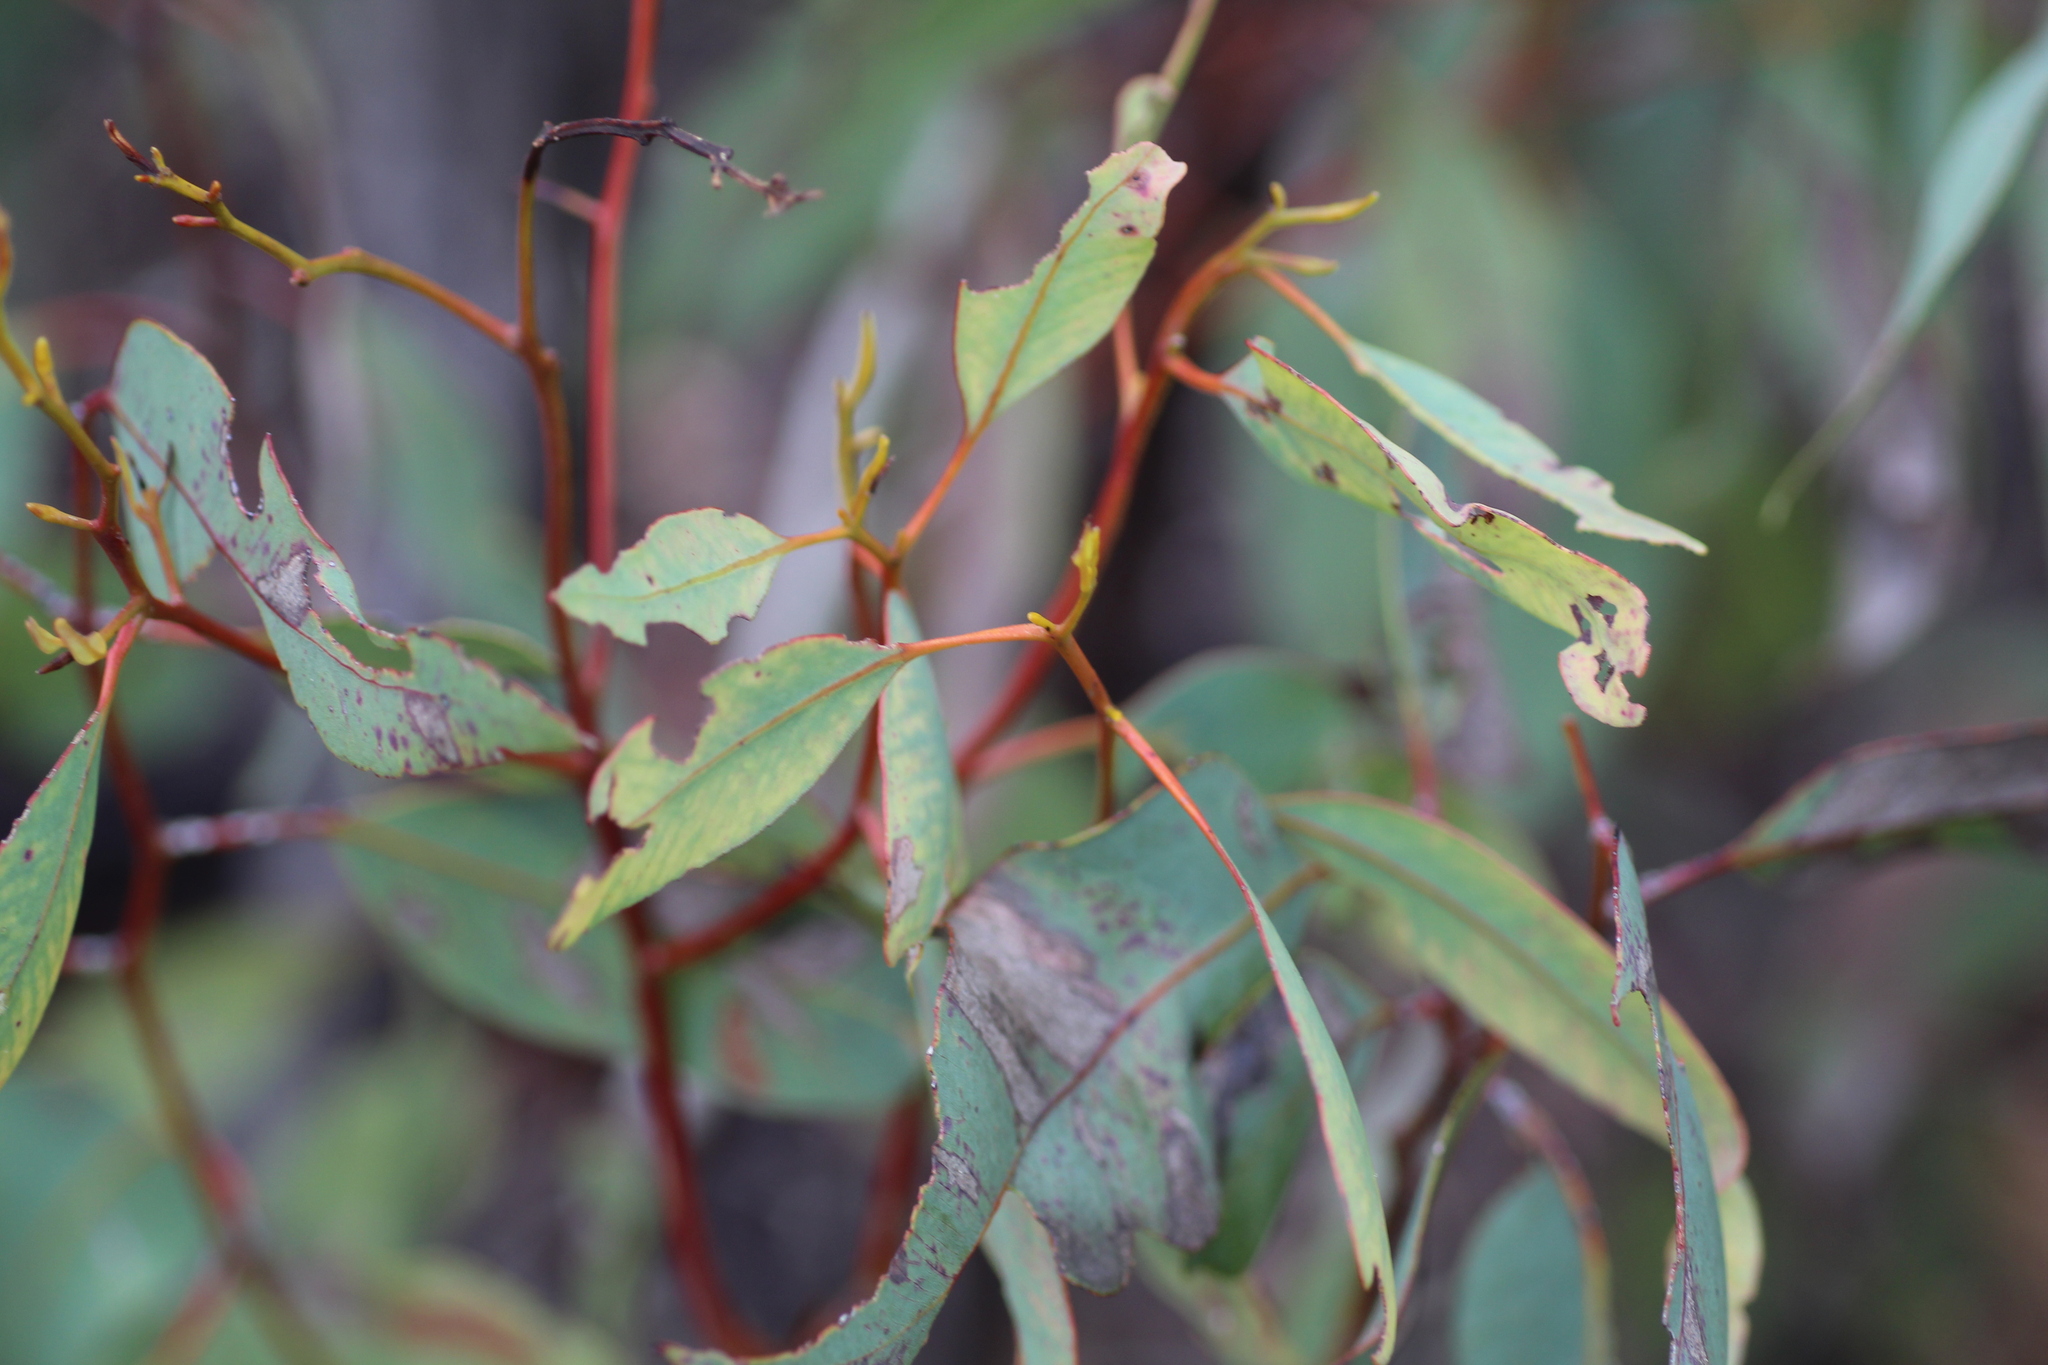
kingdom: Plantae
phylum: Tracheophyta
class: Magnoliopsida
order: Myrtales
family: Myrtaceae
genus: Eucalyptus
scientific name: Eucalyptus laeliae
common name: Darling range ghost gum
